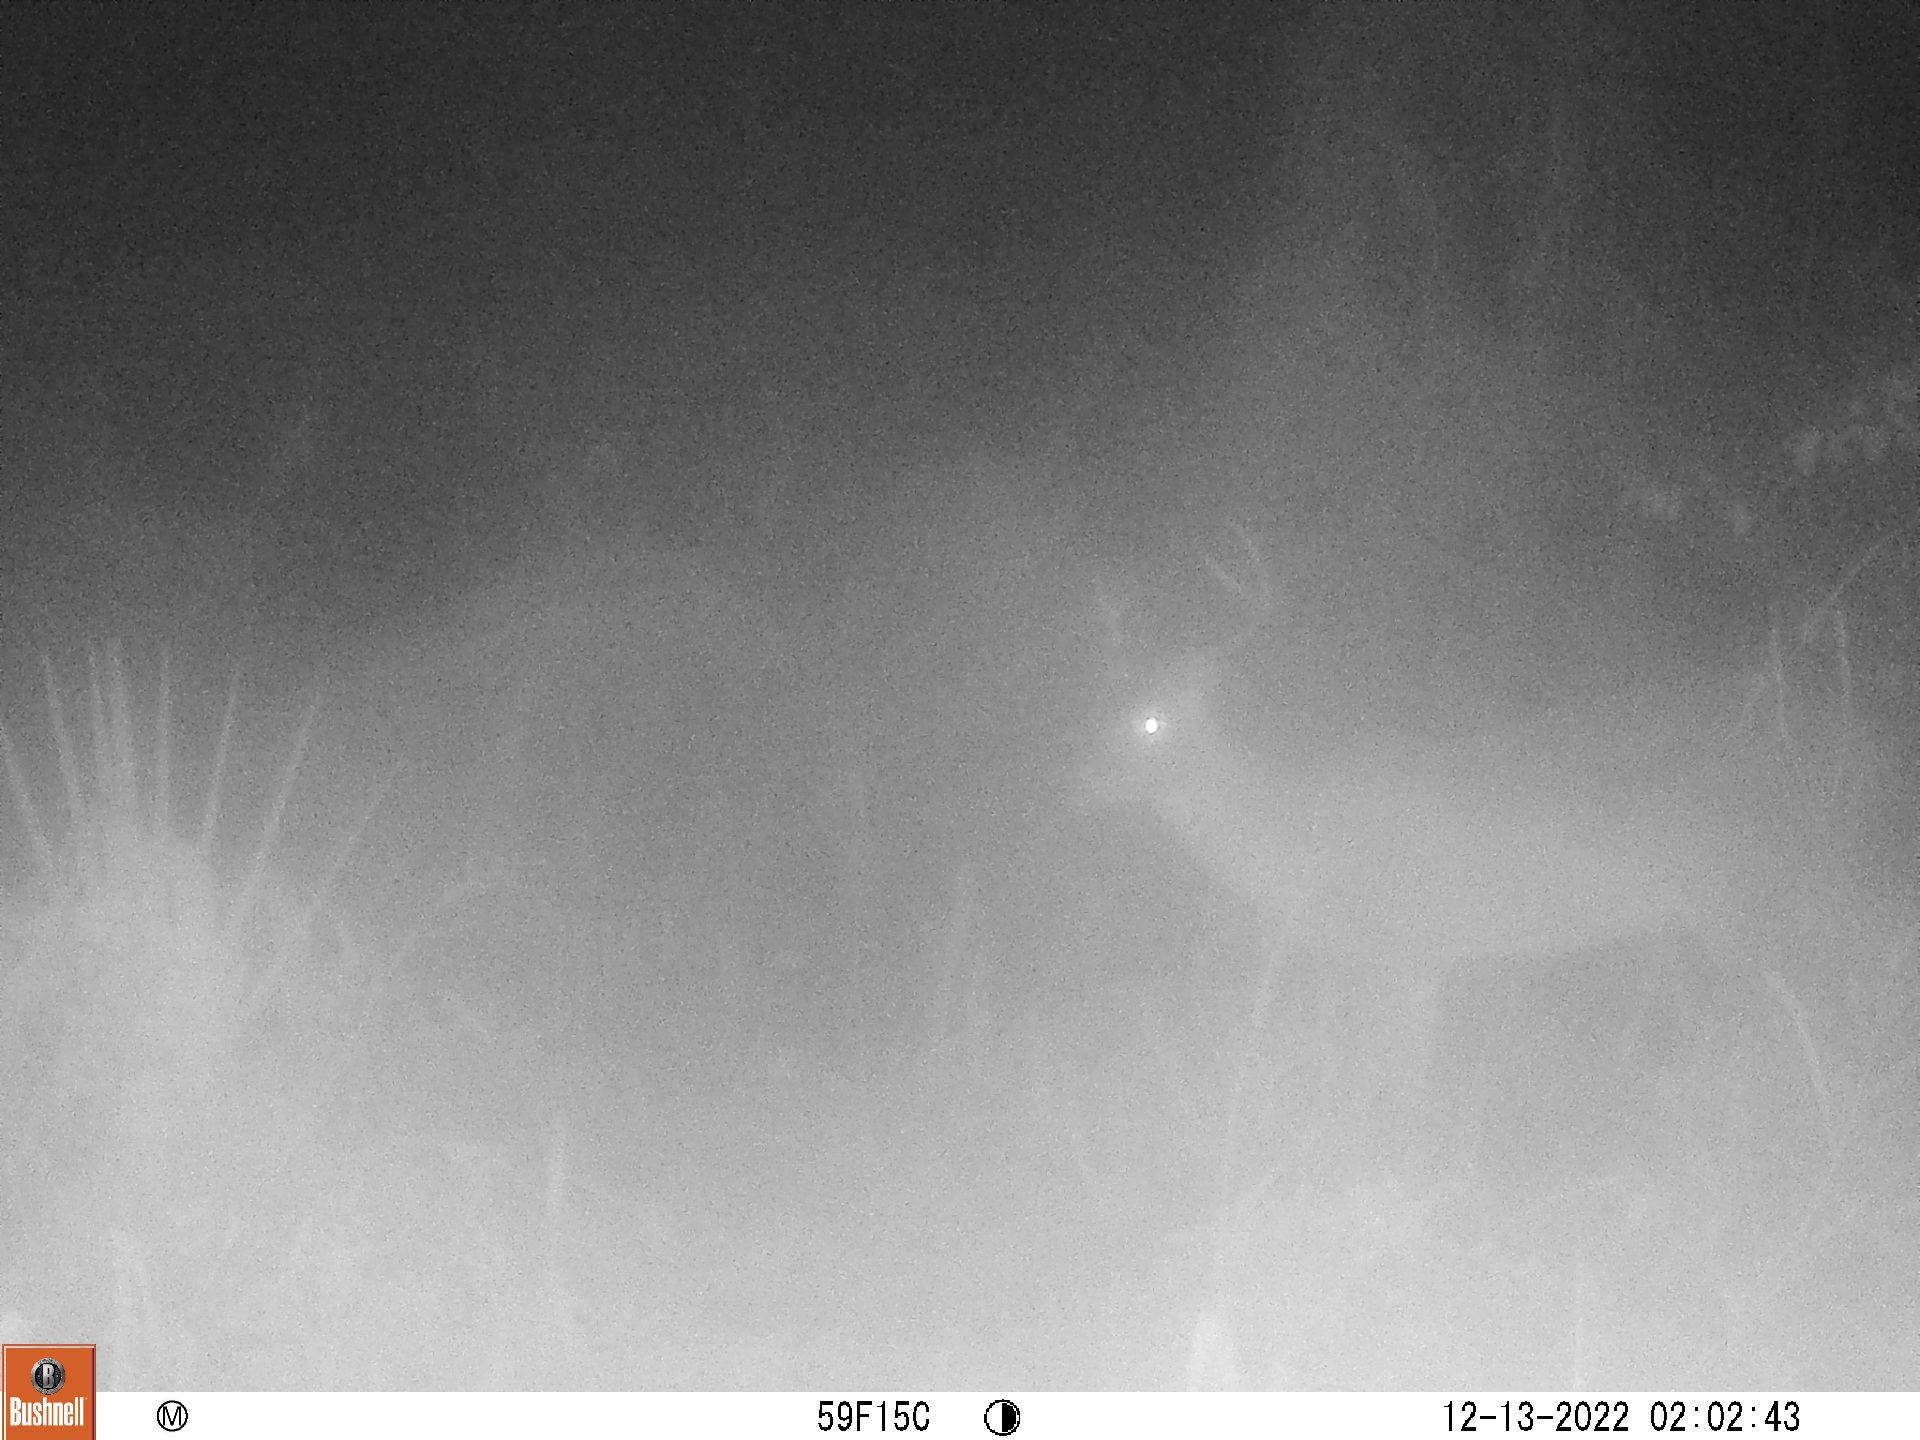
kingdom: Animalia
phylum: Chordata
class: Mammalia
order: Artiodactyla
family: Cervidae
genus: Odocoileus
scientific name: Odocoileus virginianus
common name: White-tailed deer
